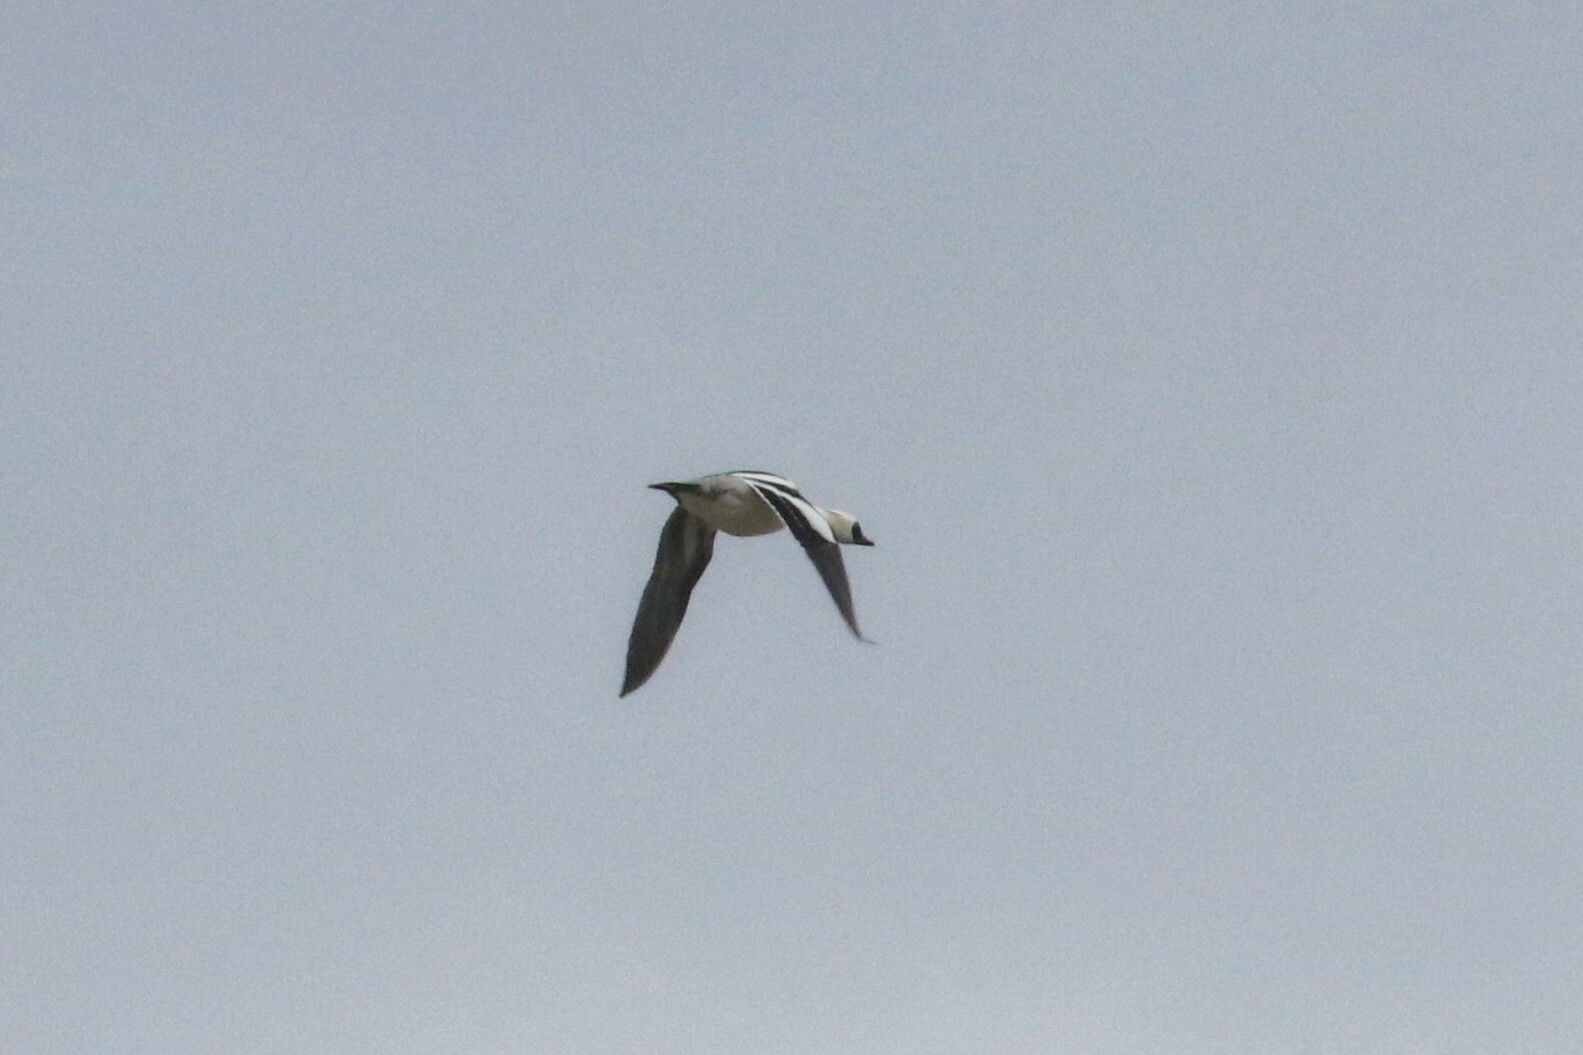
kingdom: Animalia
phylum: Chordata
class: Aves
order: Anseriformes
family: Anatidae
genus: Mergellus
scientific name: Mergellus albellus
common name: Smew
